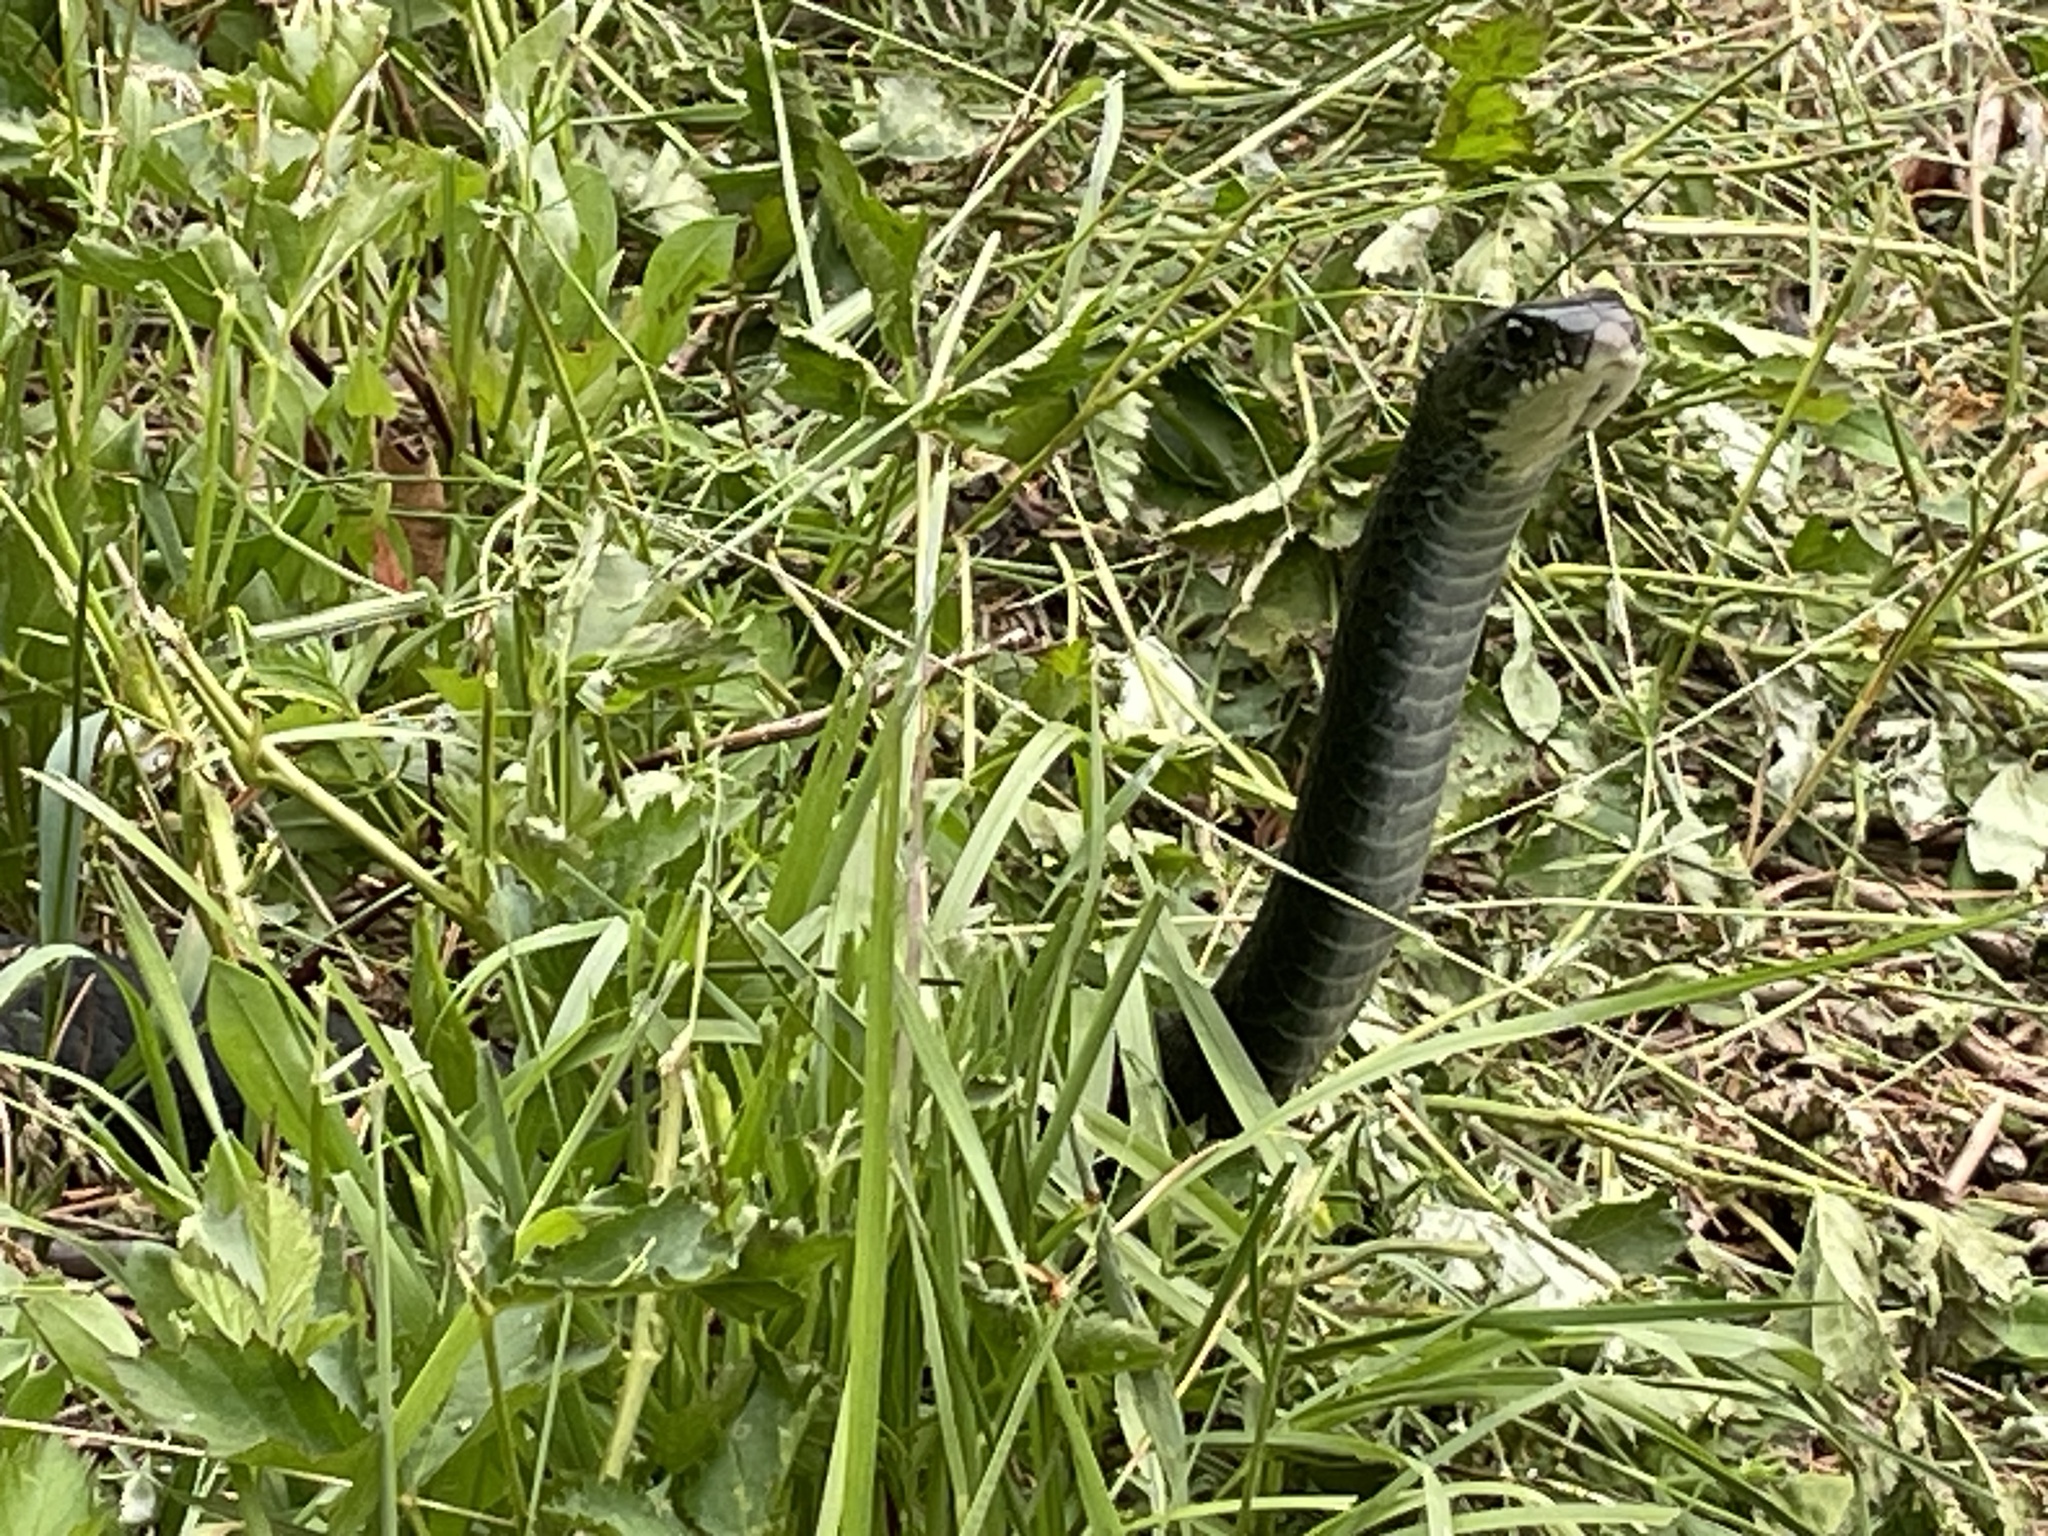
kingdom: Animalia
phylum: Chordata
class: Squamata
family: Colubridae
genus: Coluber
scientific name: Coluber constrictor
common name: Eastern racer
